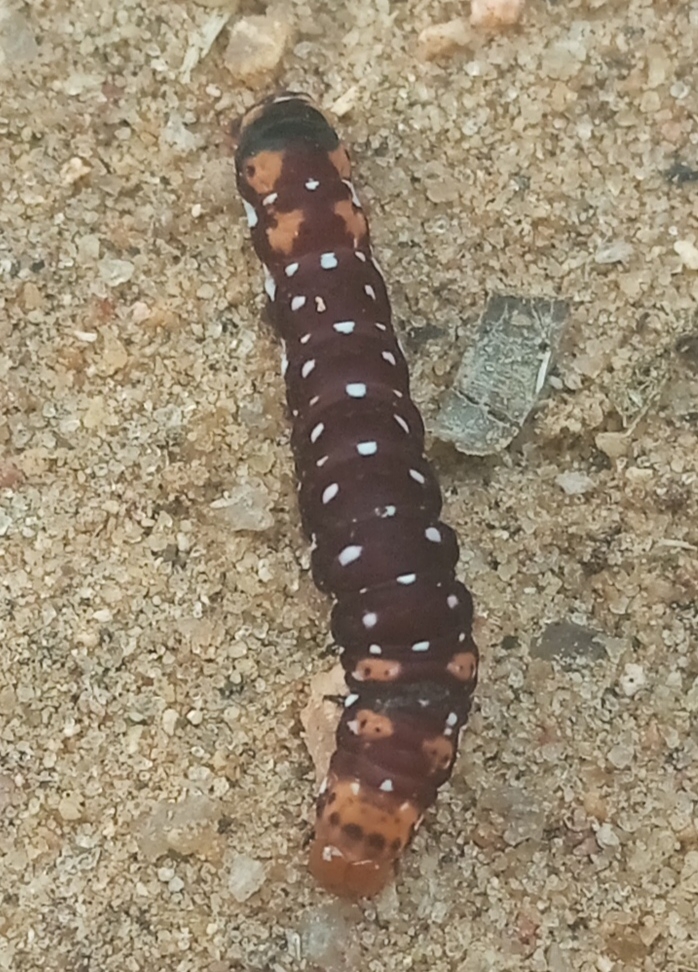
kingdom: Animalia
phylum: Arthropoda
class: Insecta
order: Lepidoptera
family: Noctuidae
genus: Polytela
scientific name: Polytela gloriosae
